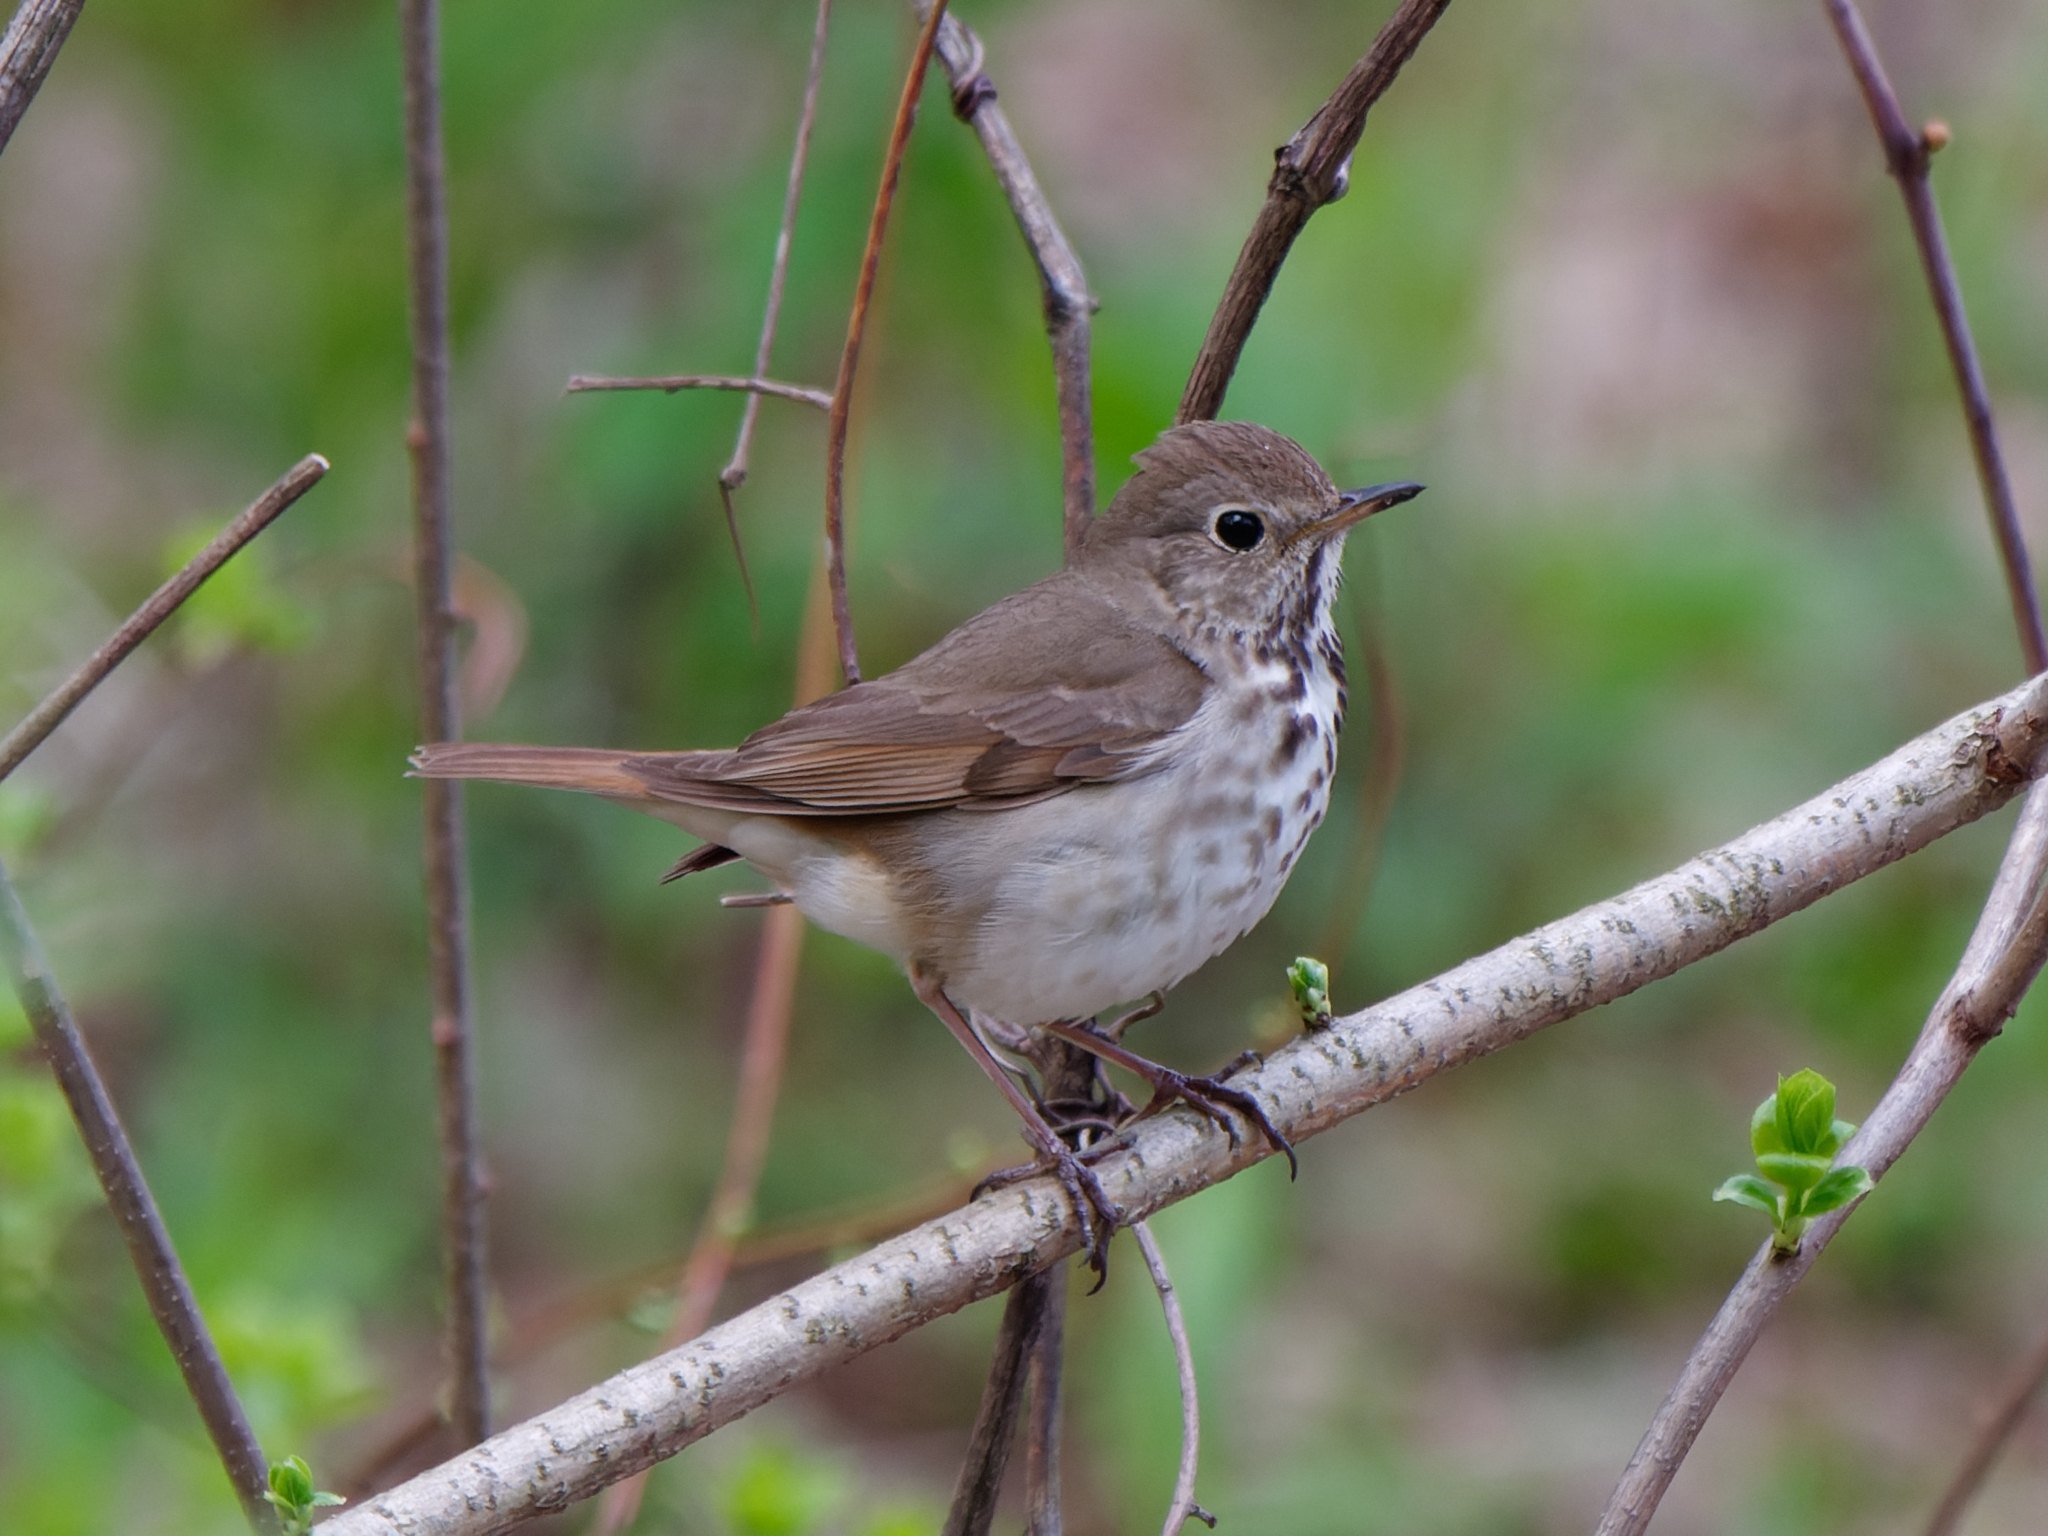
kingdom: Animalia
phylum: Chordata
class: Aves
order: Passeriformes
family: Turdidae
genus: Catharus
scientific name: Catharus guttatus
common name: Hermit thrush
